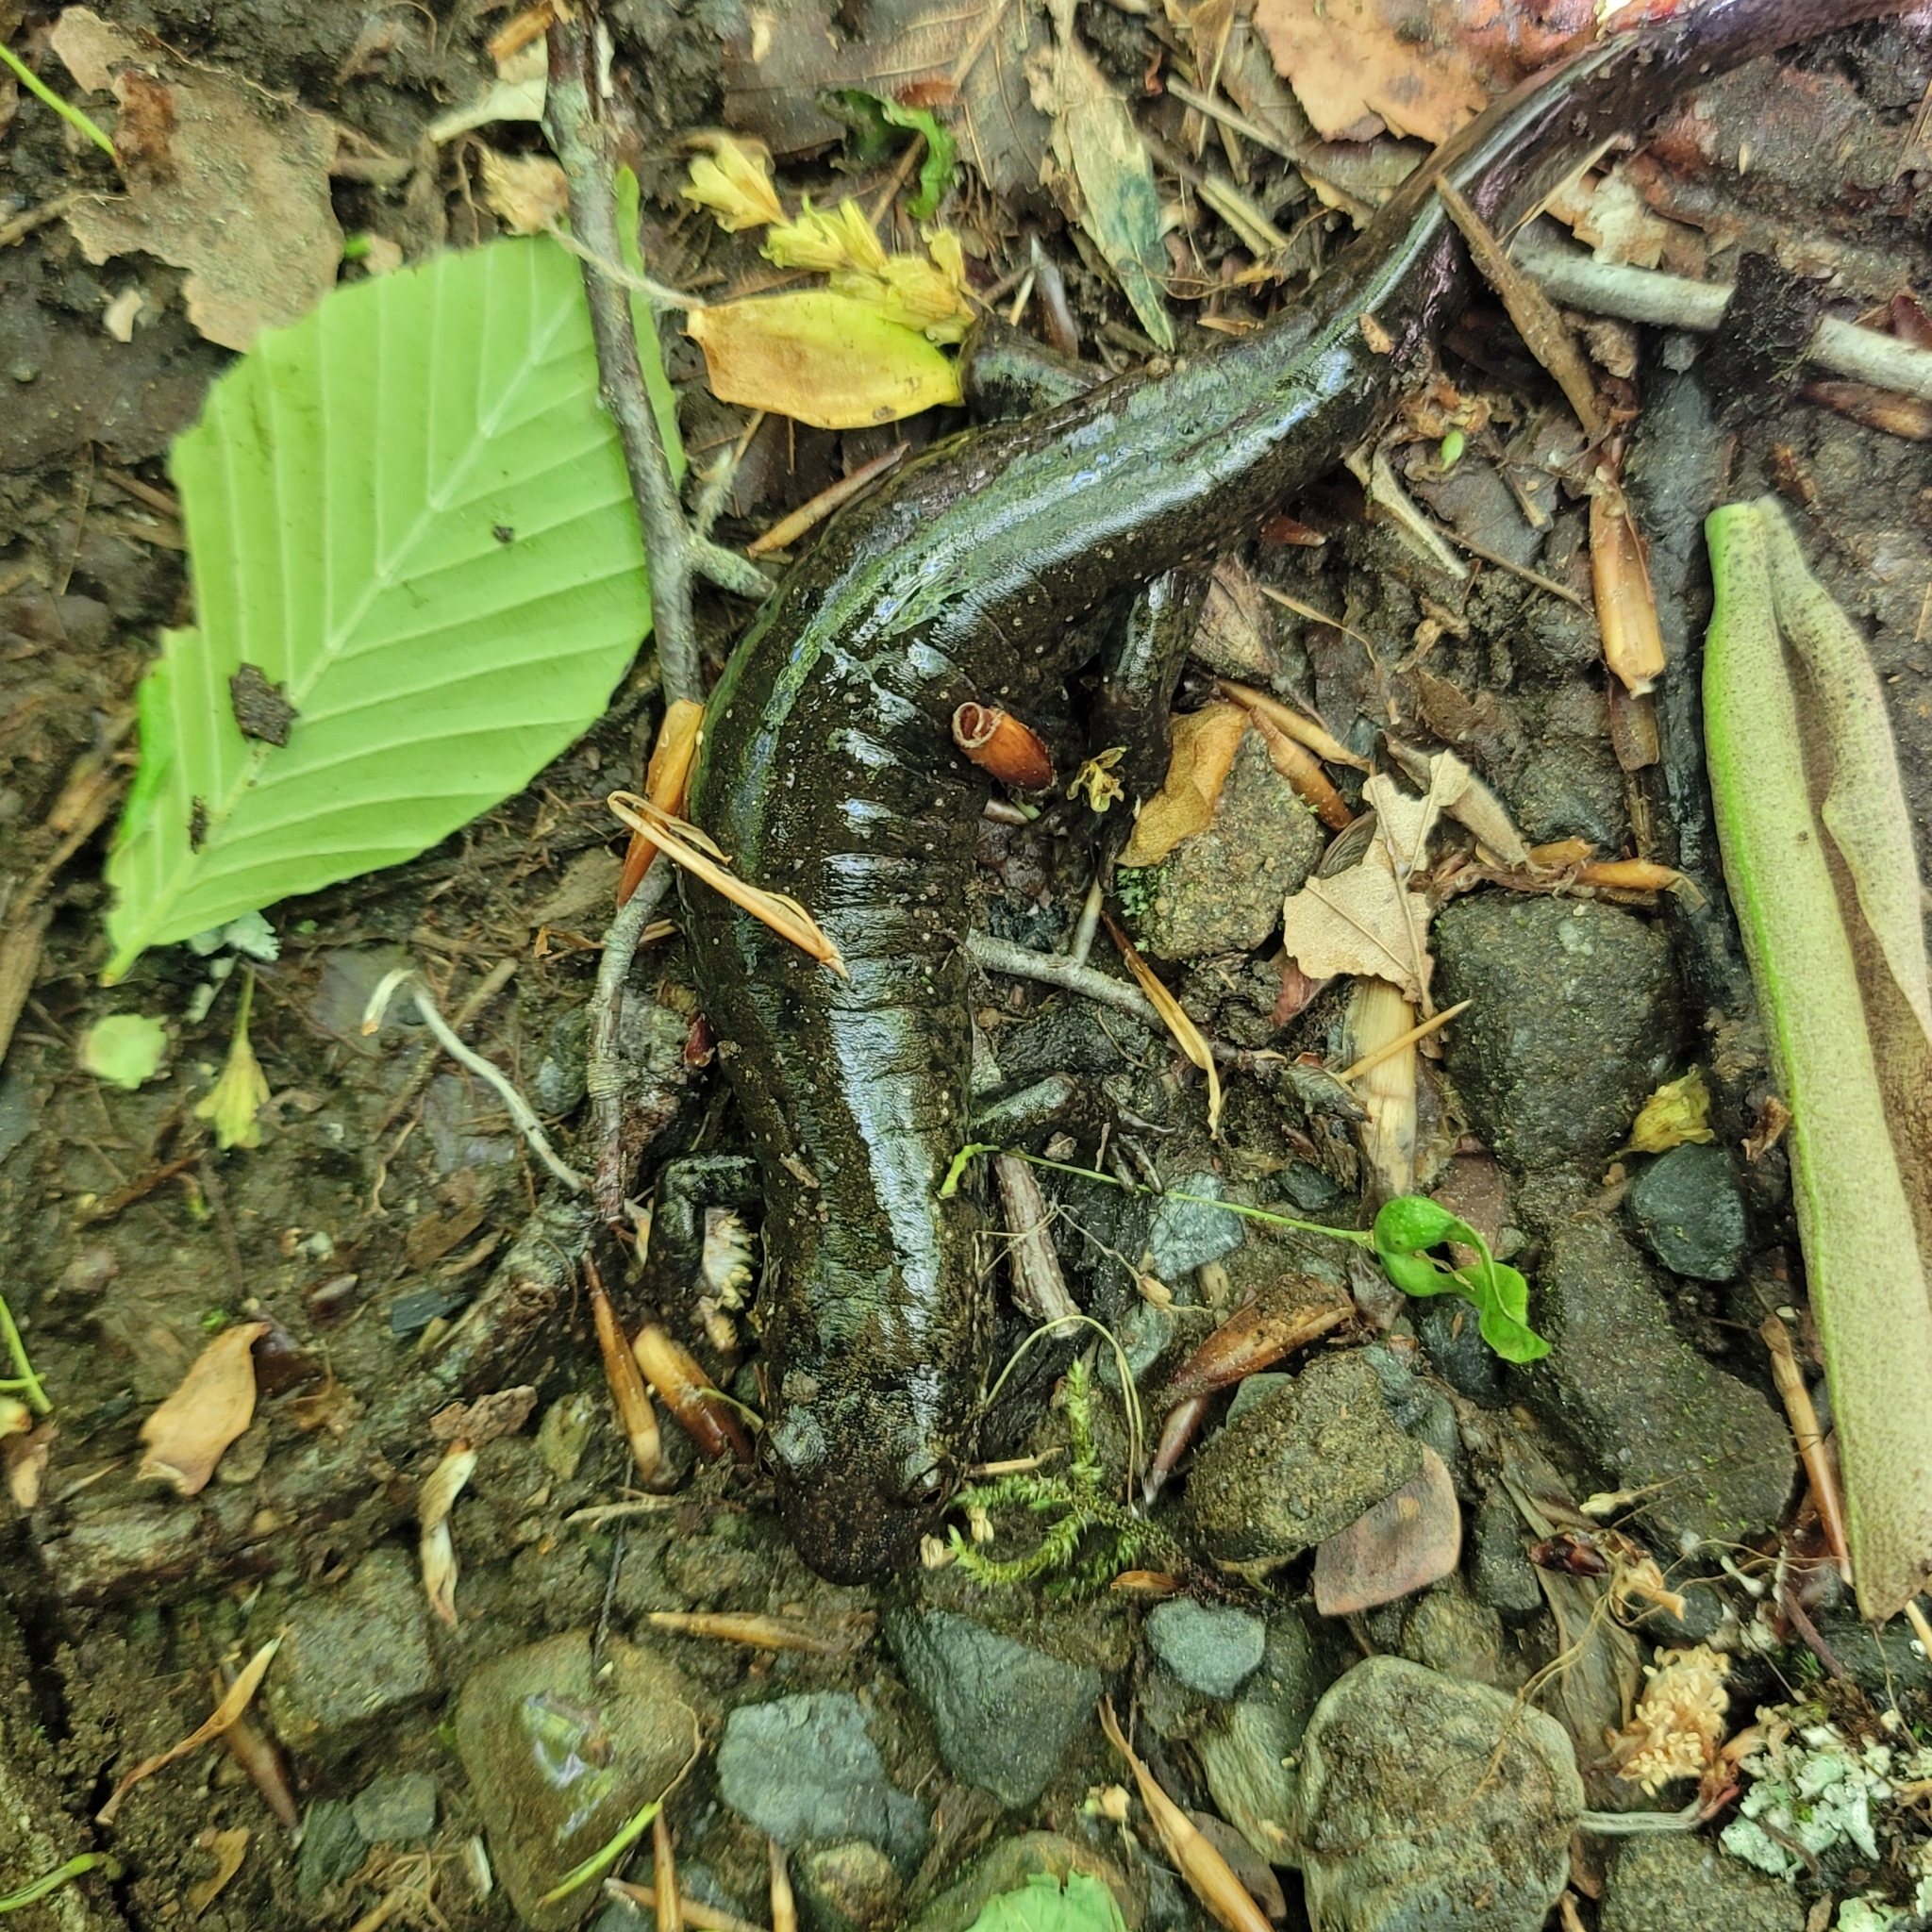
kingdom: Animalia
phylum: Chordata
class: Amphibia
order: Caudata
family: Plethodontidae
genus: Desmognathus
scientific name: Desmognathus
